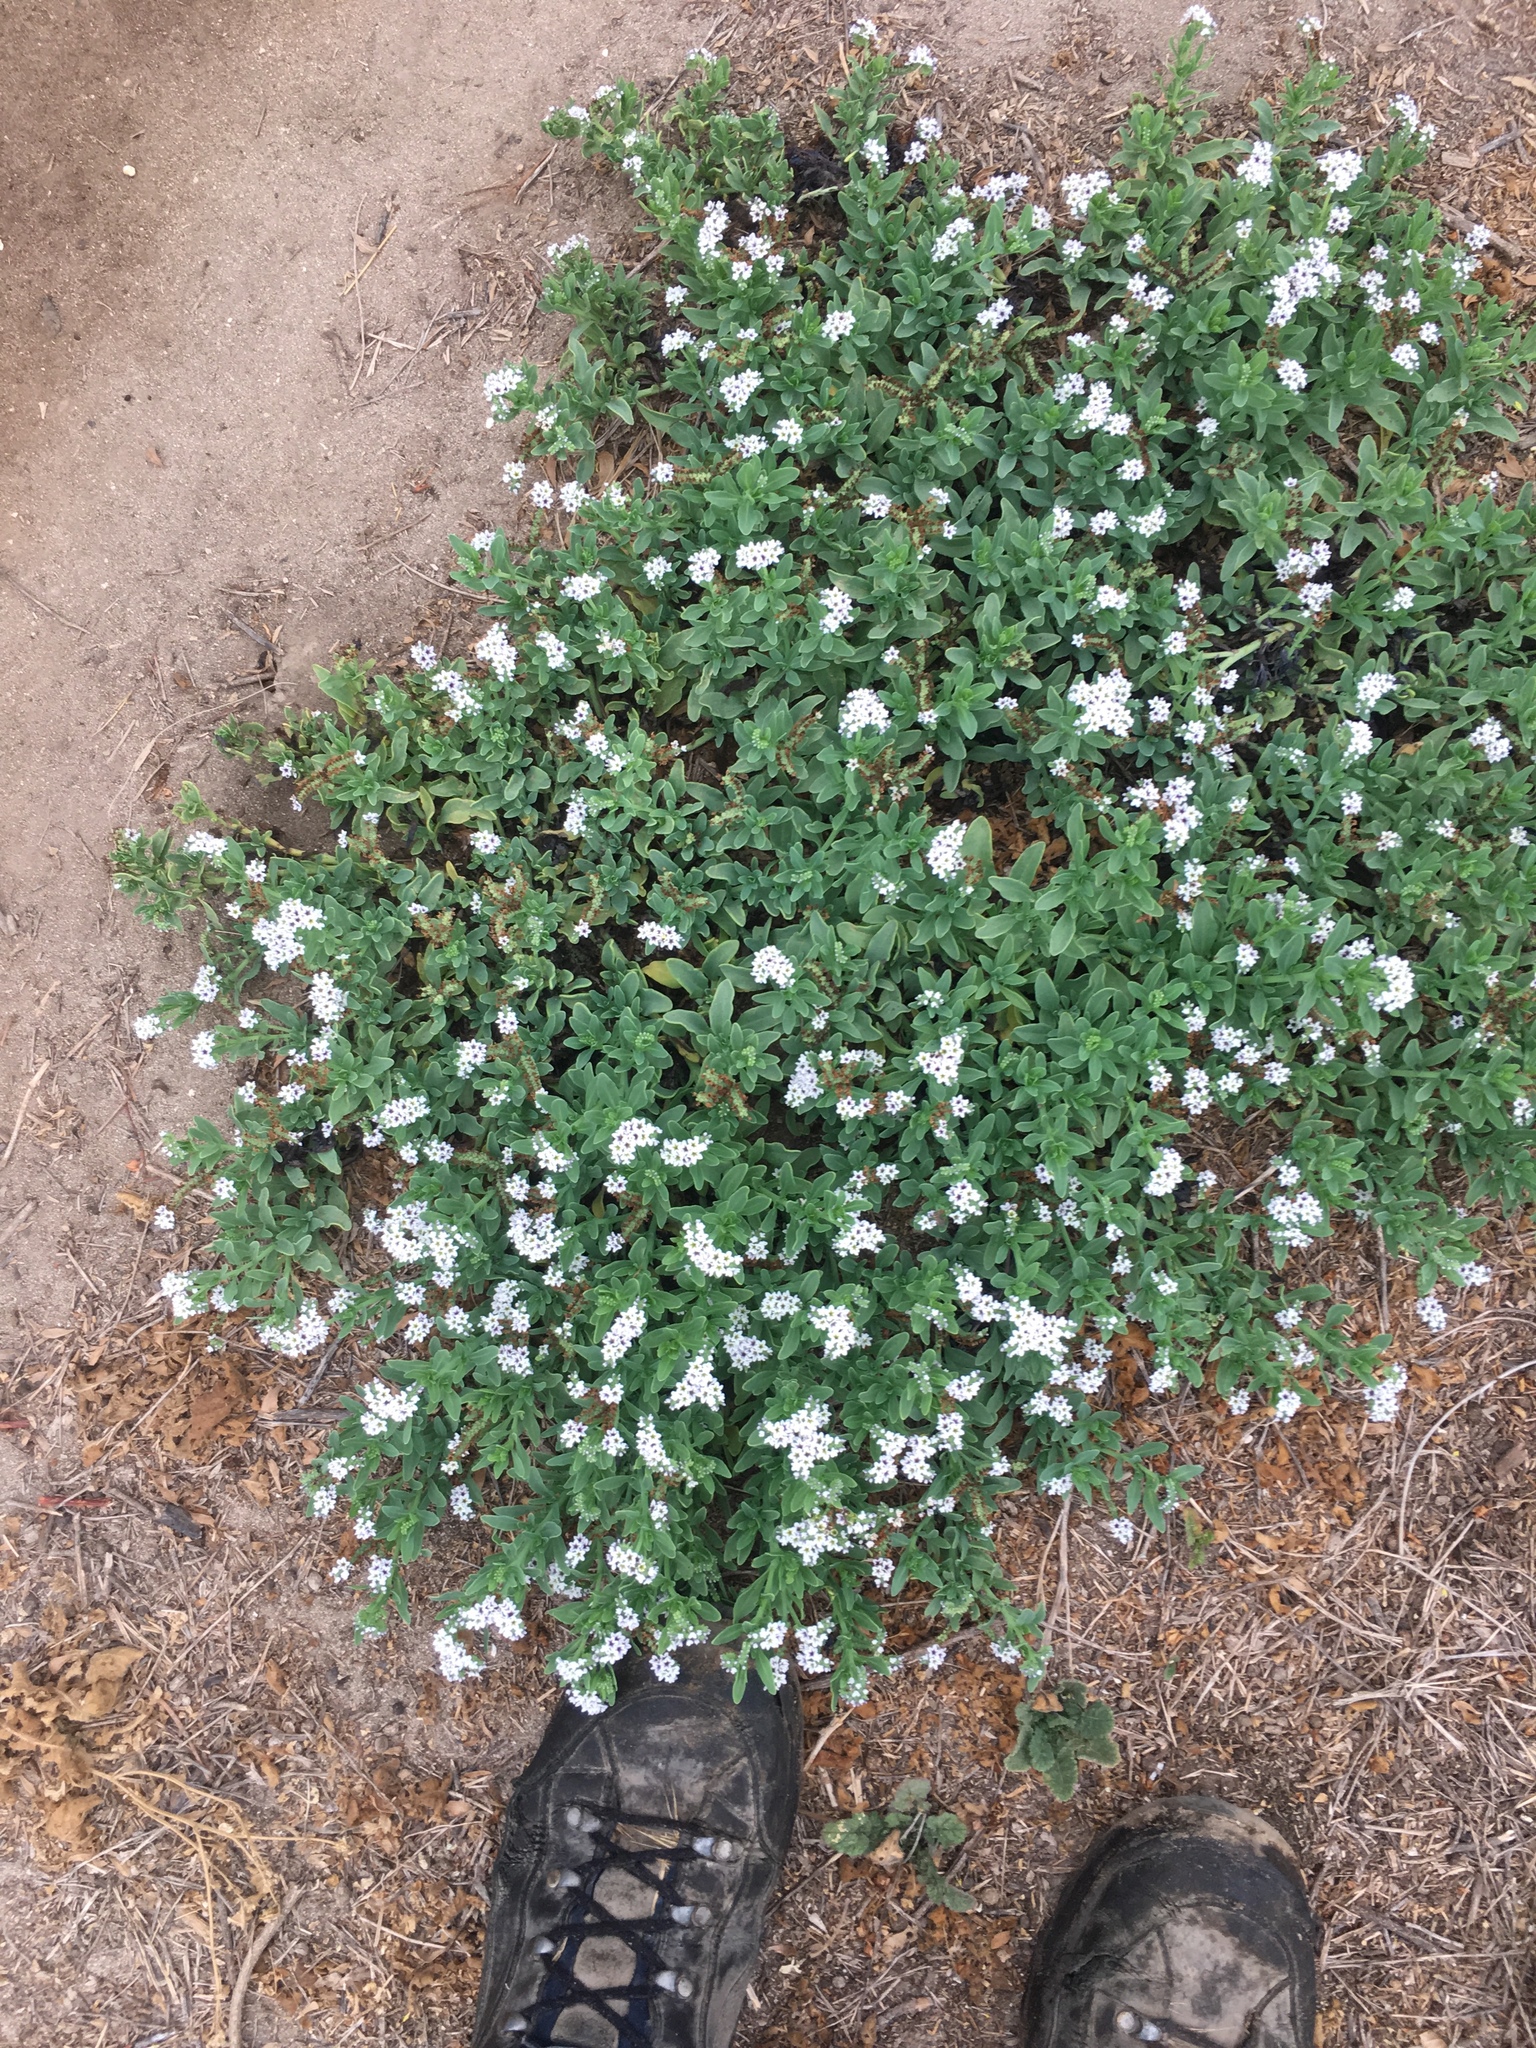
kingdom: Plantae
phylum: Tracheophyta
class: Magnoliopsida
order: Boraginales
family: Heliotropiaceae
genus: Heliotropium
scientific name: Heliotropium curassavicum
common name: Seaside heliotrope
